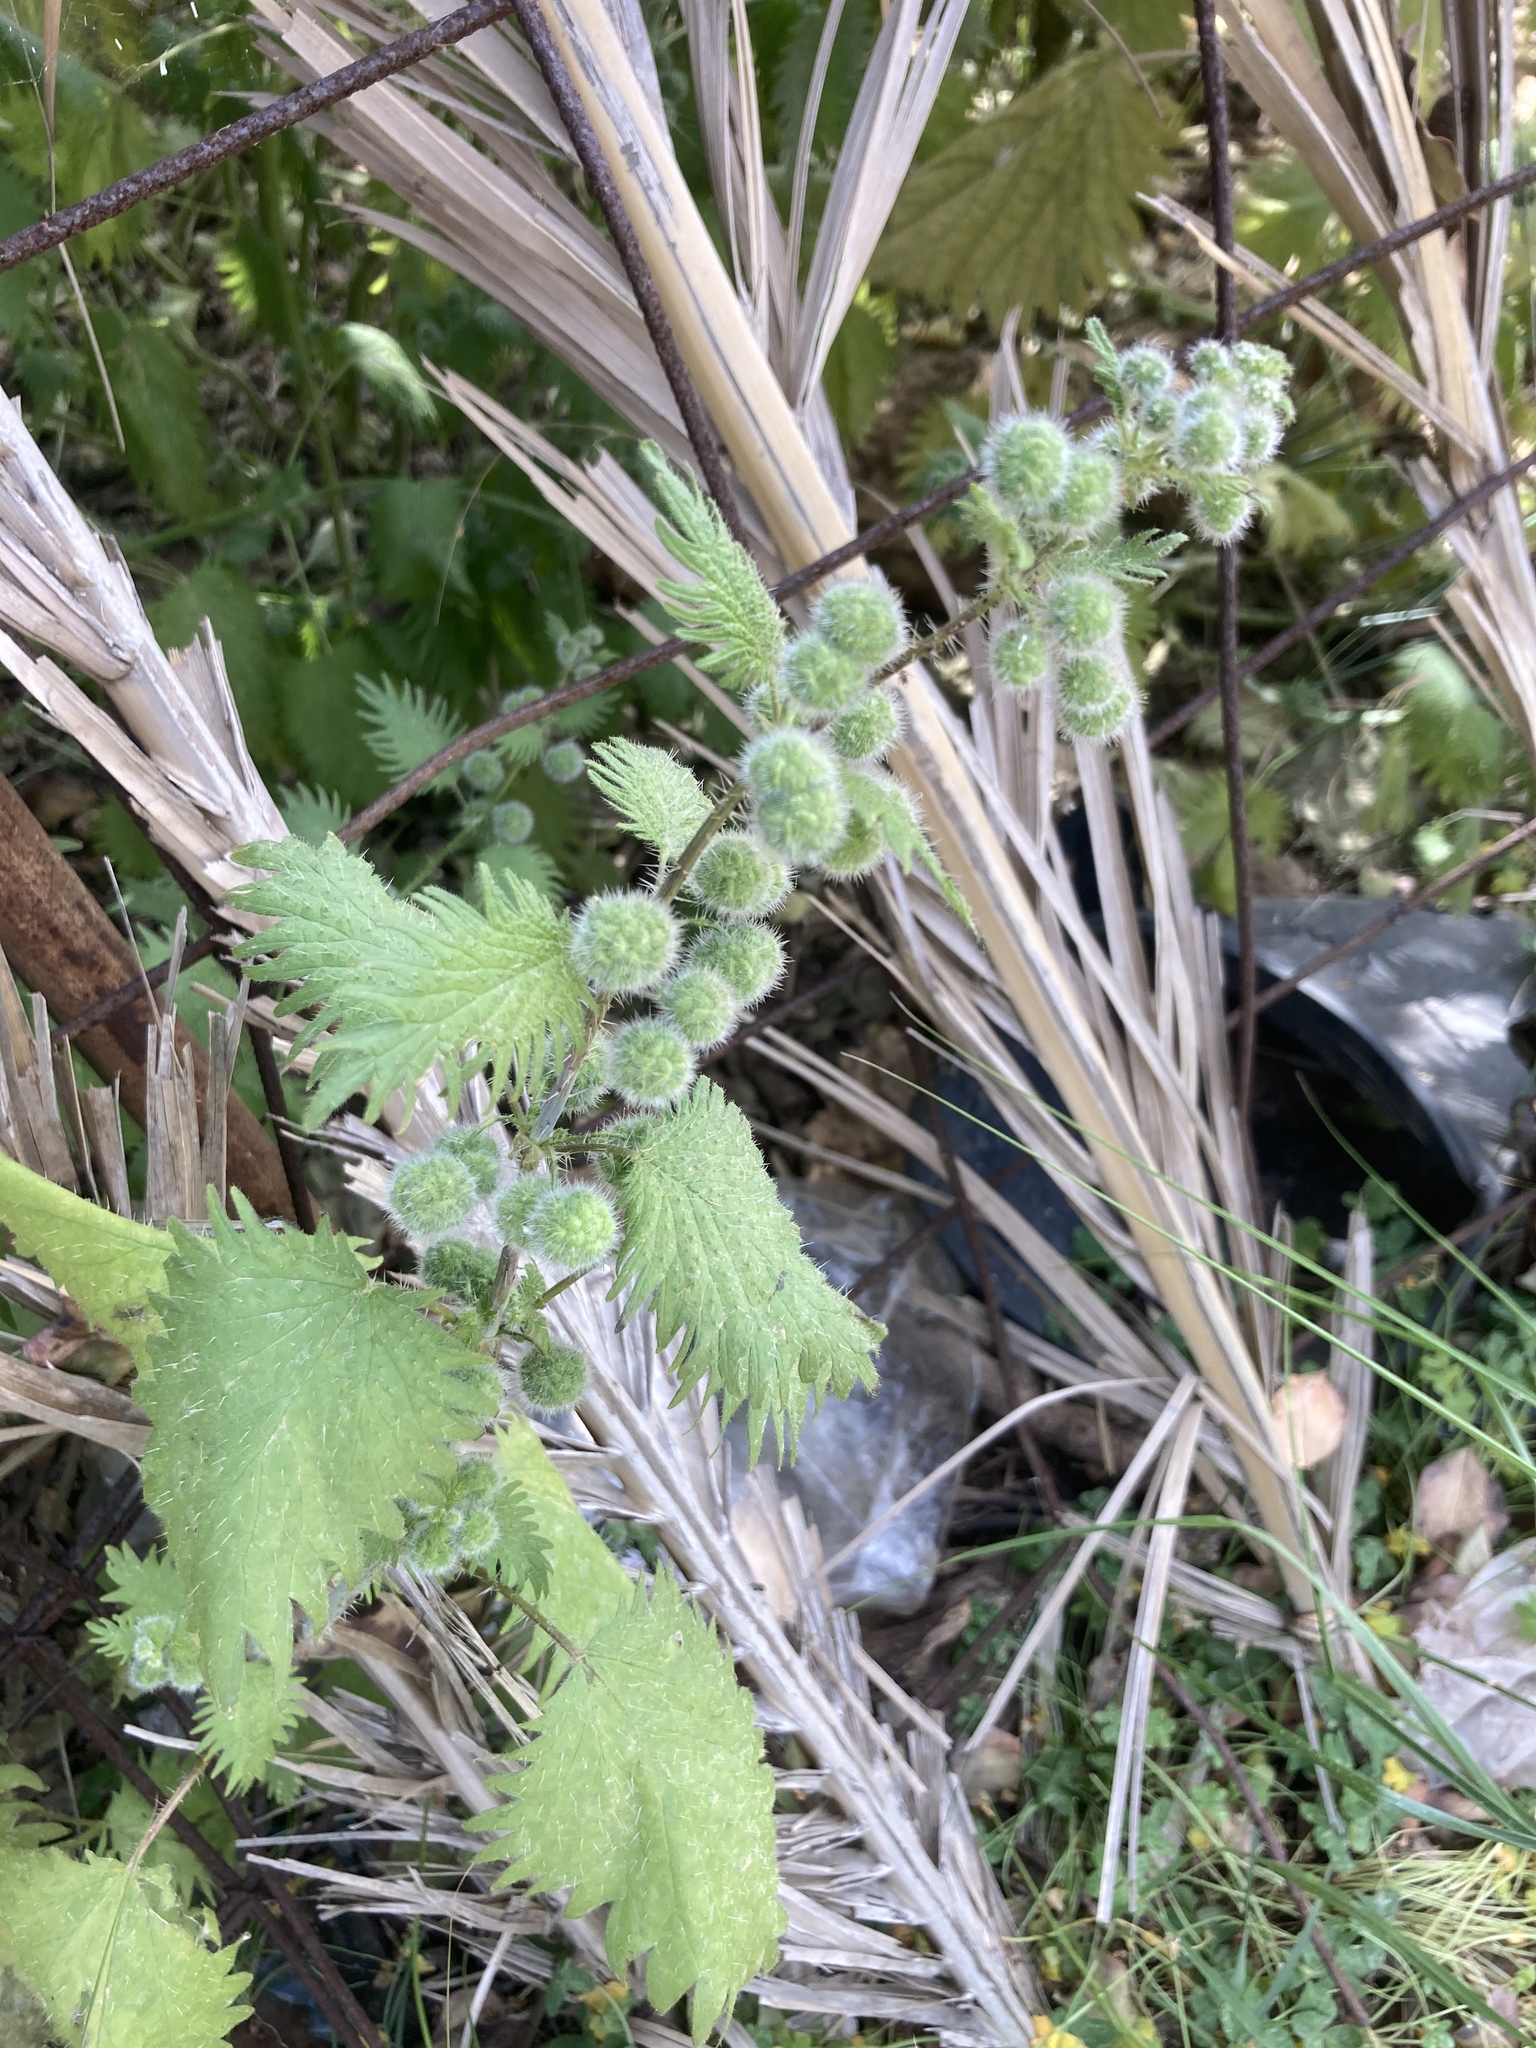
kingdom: Plantae
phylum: Tracheophyta
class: Magnoliopsida
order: Rosales
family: Urticaceae
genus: Urtica
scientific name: Urtica pilulifera
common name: Roman nettle
